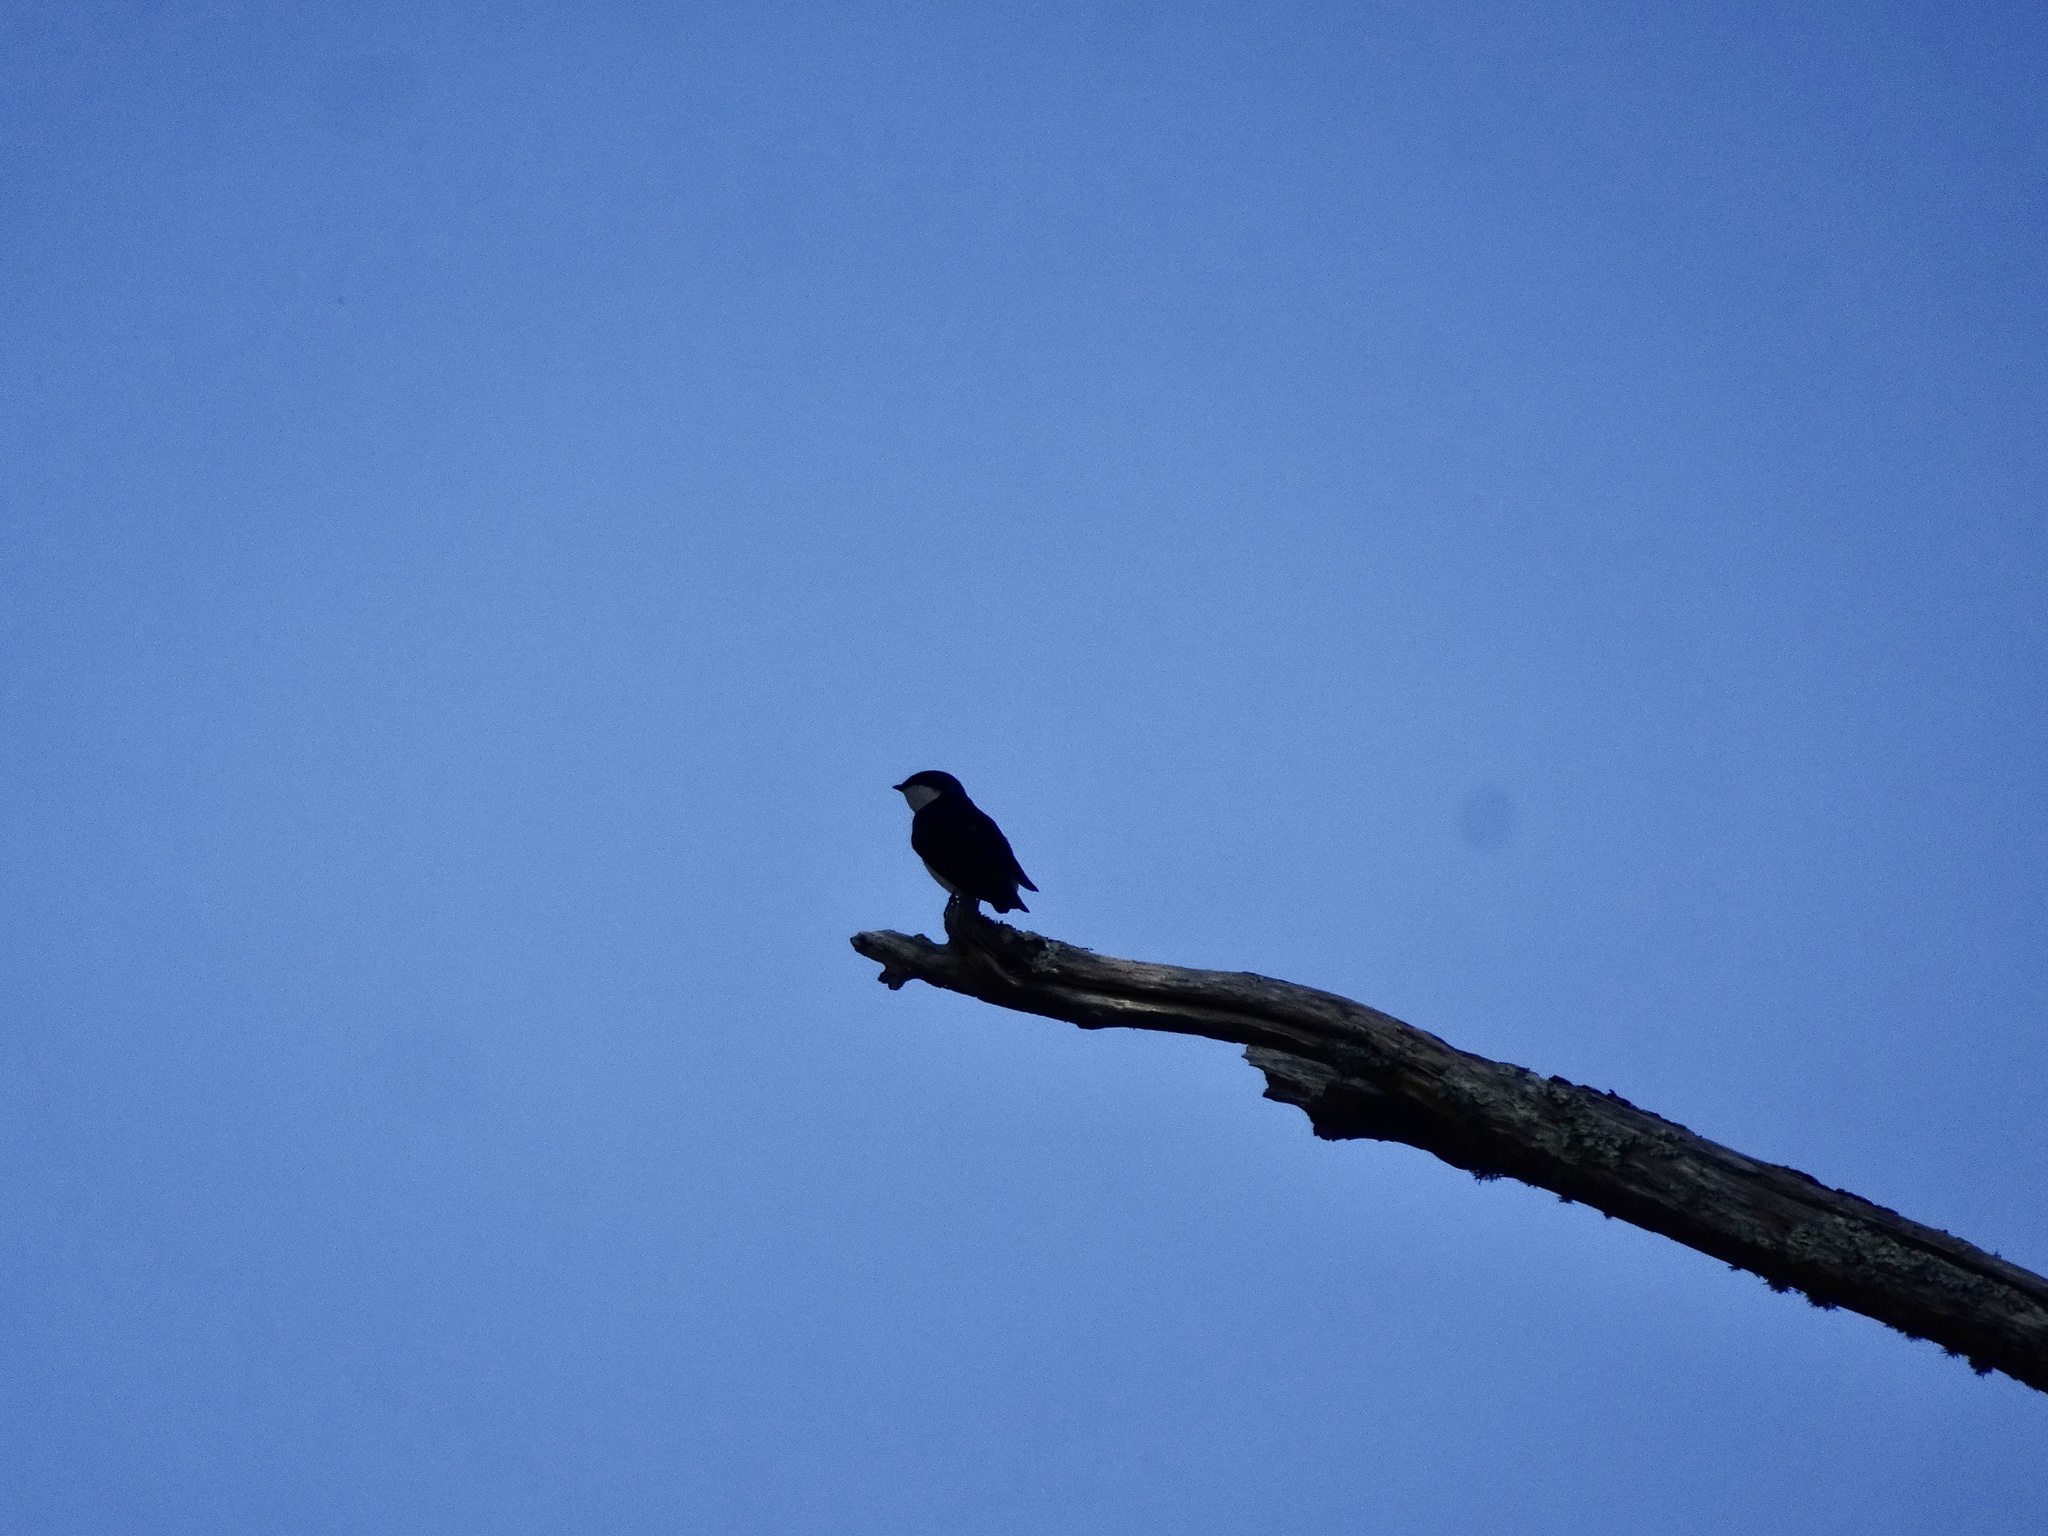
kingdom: Animalia
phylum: Chordata
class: Aves
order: Passeriformes
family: Hirundinidae
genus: Tachycineta
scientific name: Tachycineta bicolor
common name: Tree swallow
